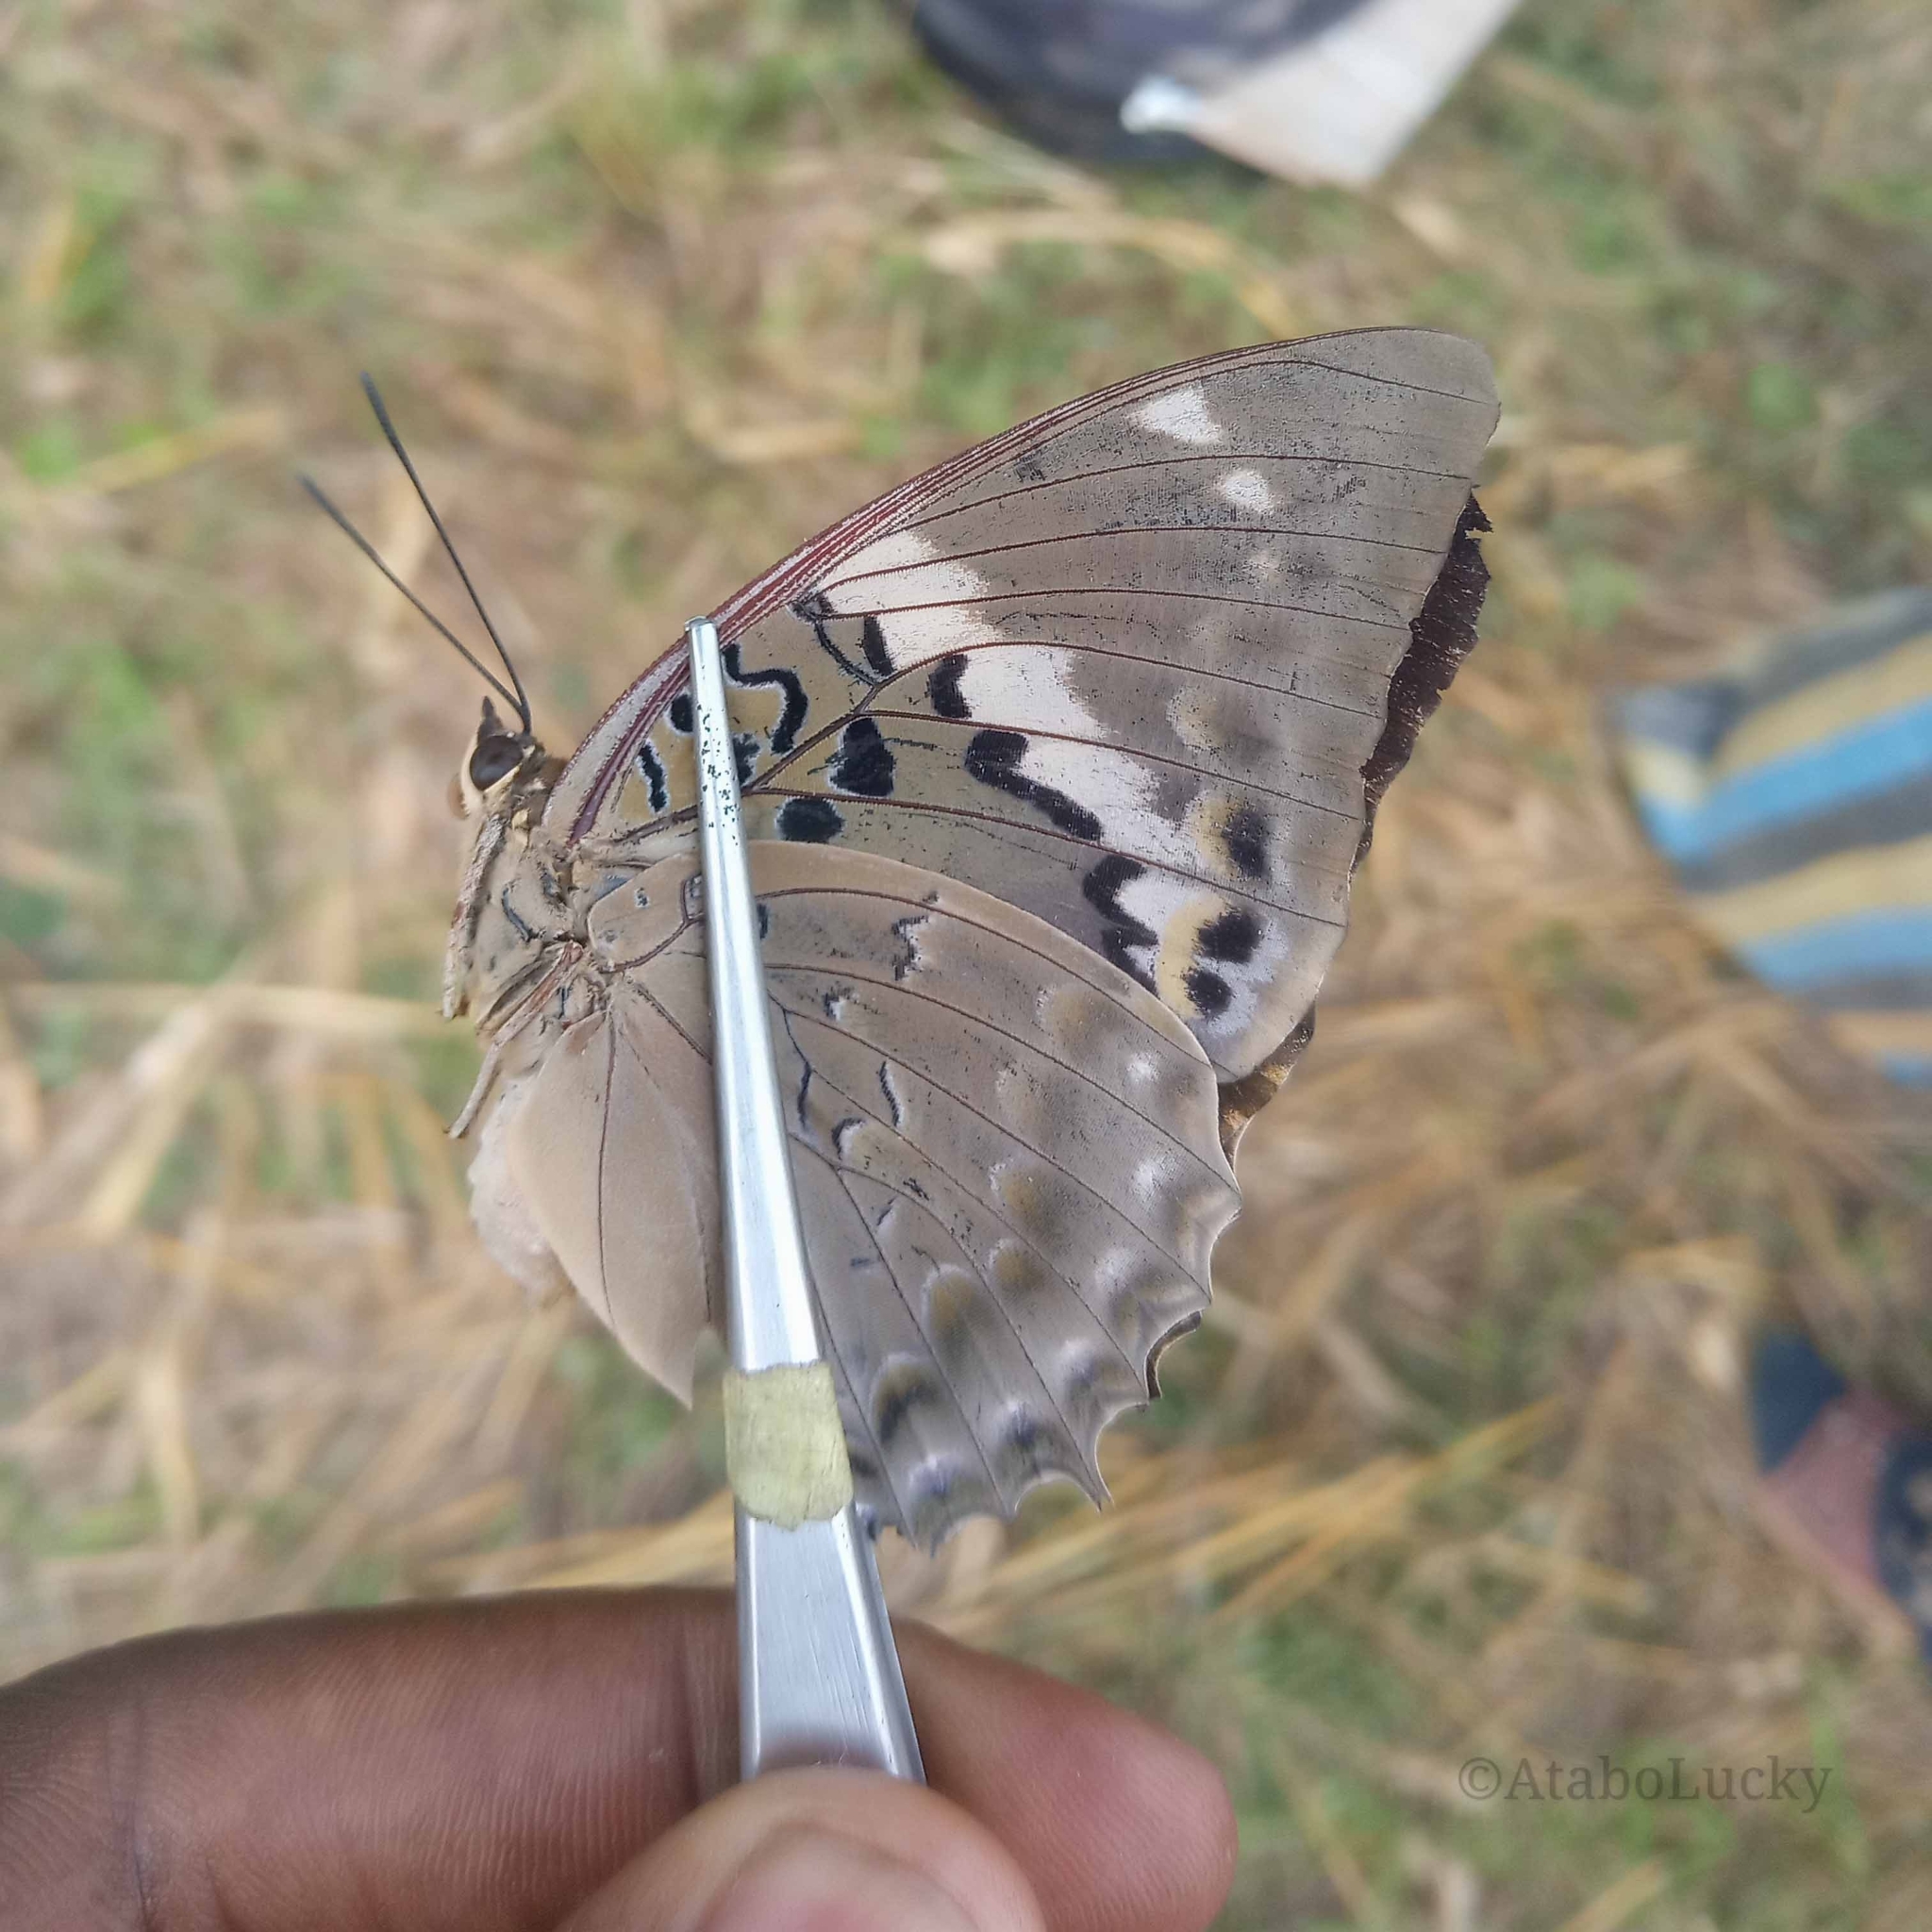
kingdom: Animalia
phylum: Arthropoda
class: Insecta
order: Lepidoptera
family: Nymphalidae
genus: Charaxes
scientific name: Charaxes tiridates
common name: Common blue charaxes
